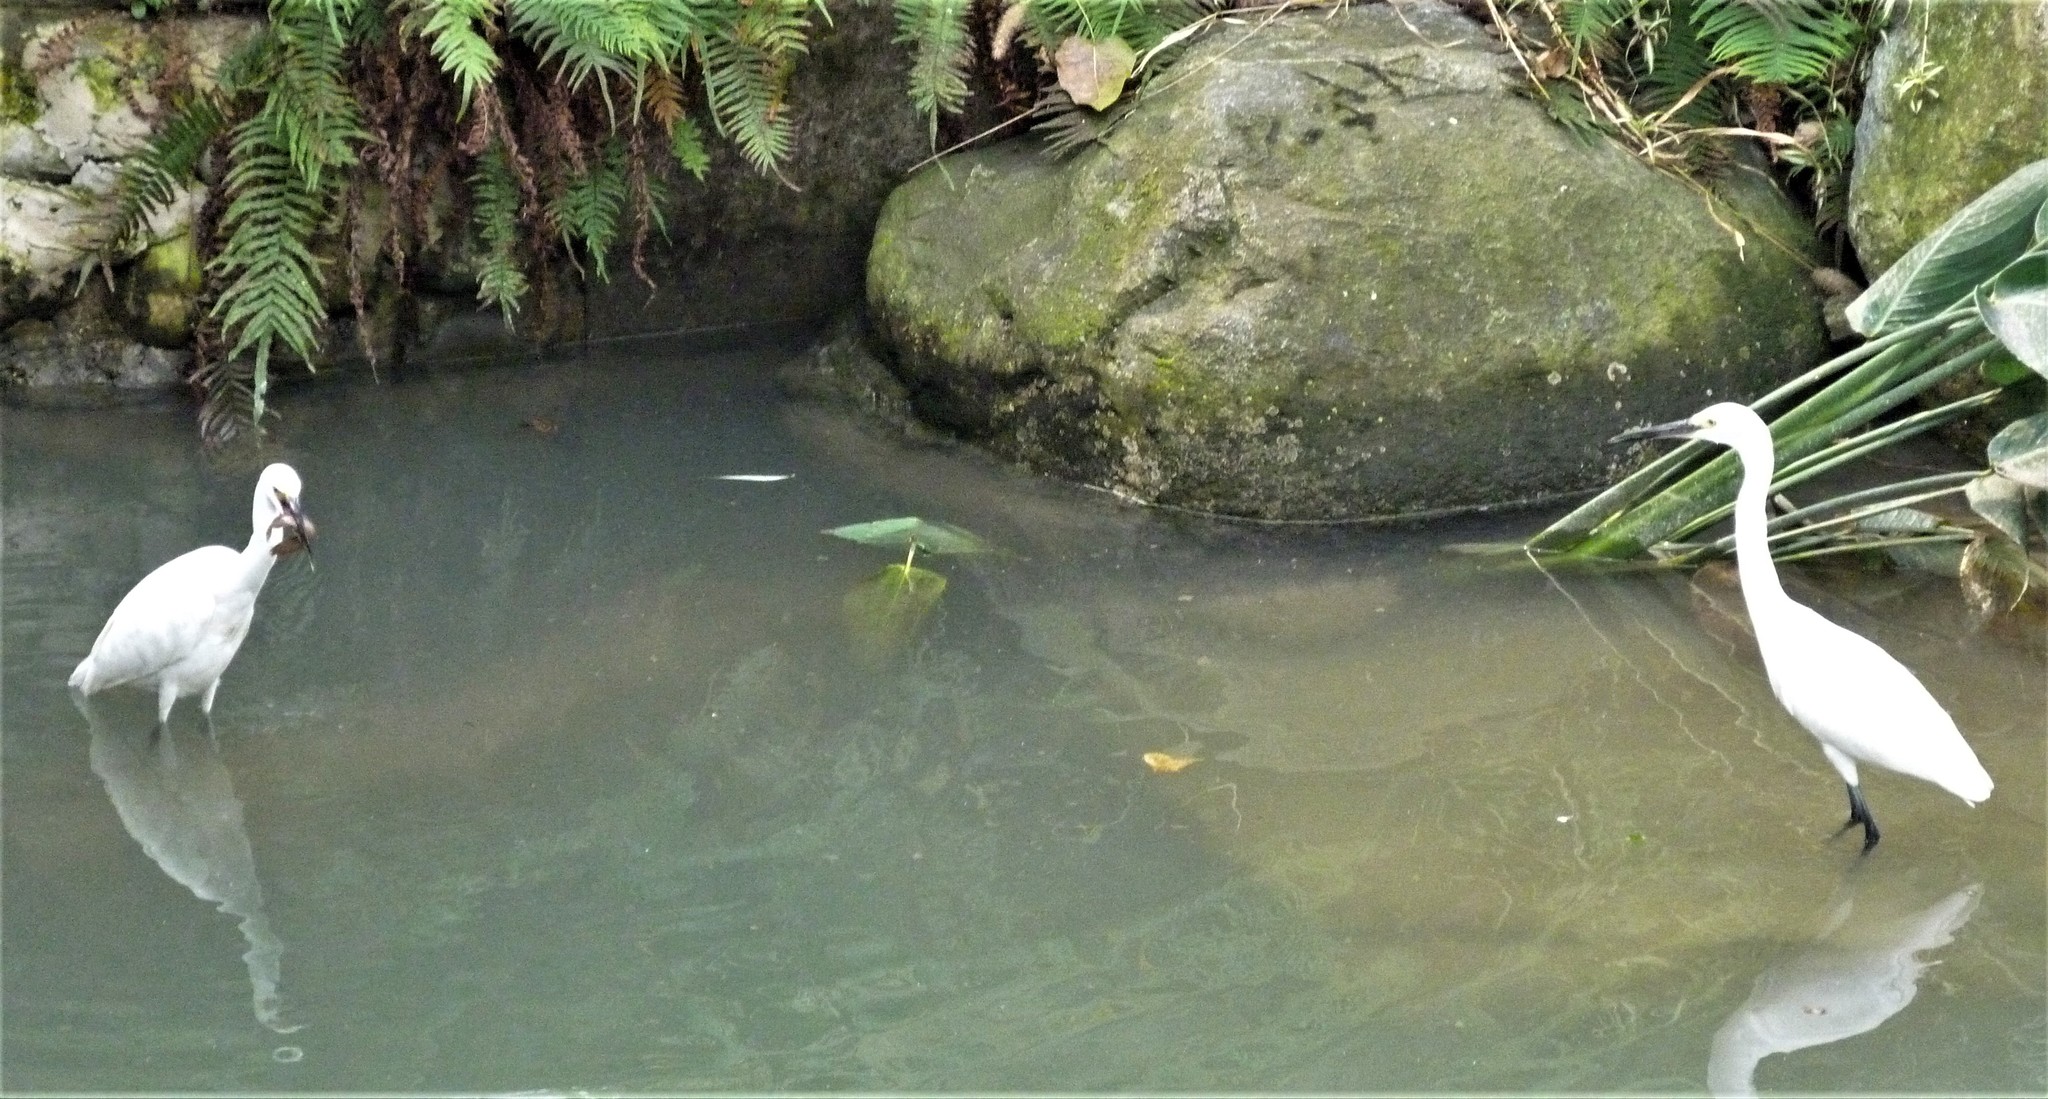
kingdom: Animalia
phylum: Chordata
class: Aves
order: Pelecaniformes
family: Ardeidae
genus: Egretta
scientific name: Egretta garzetta
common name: Little egret
